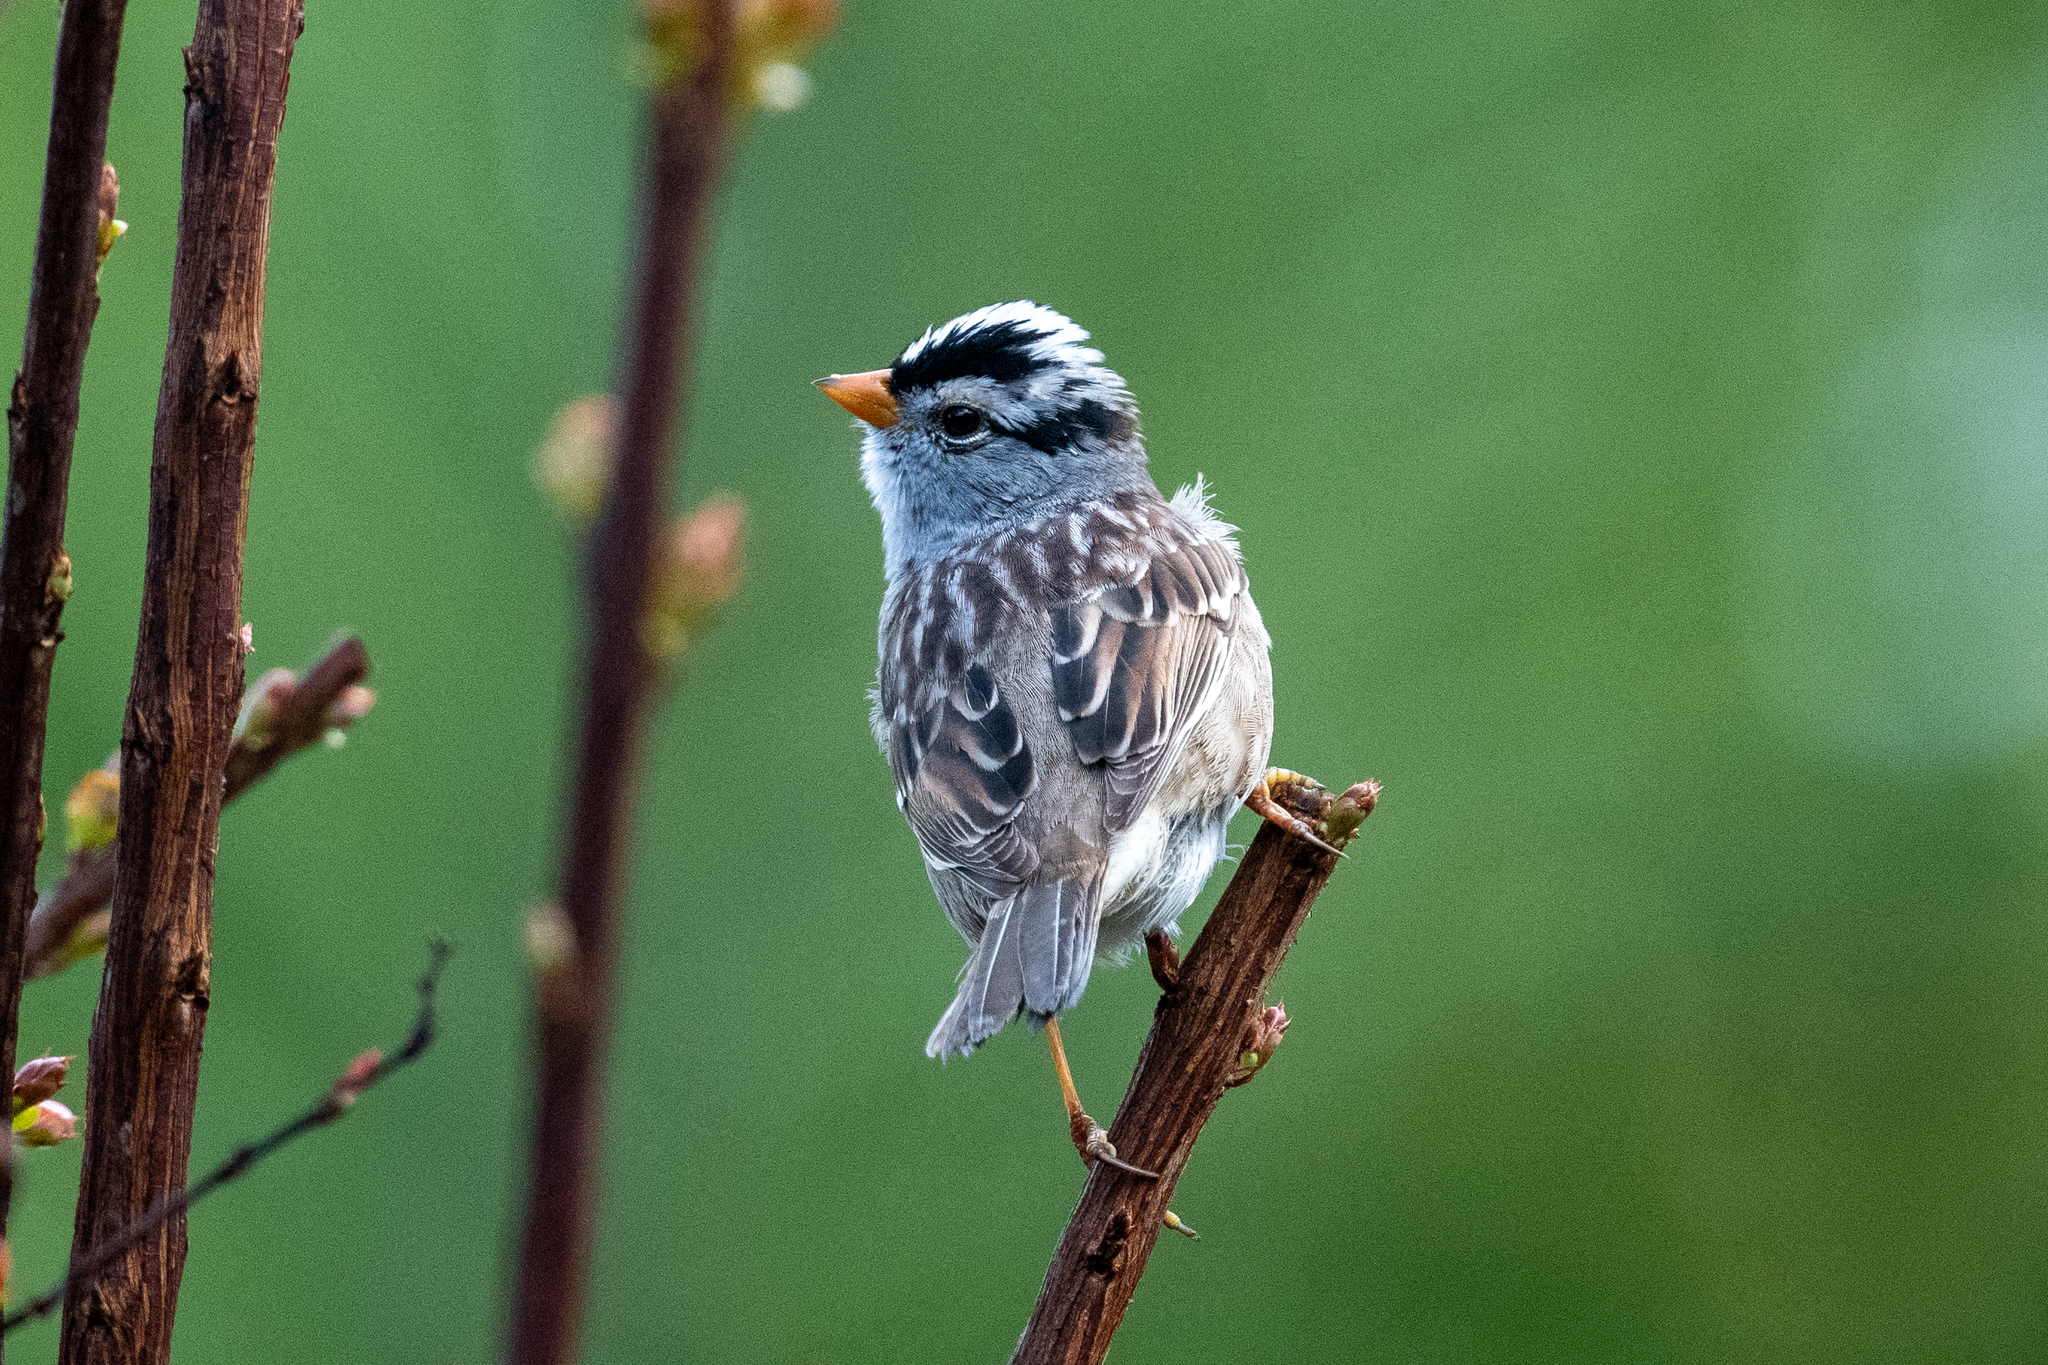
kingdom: Animalia
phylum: Chordata
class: Aves
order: Passeriformes
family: Passerellidae
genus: Zonotrichia
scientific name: Zonotrichia leucophrys
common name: White-crowned sparrow
